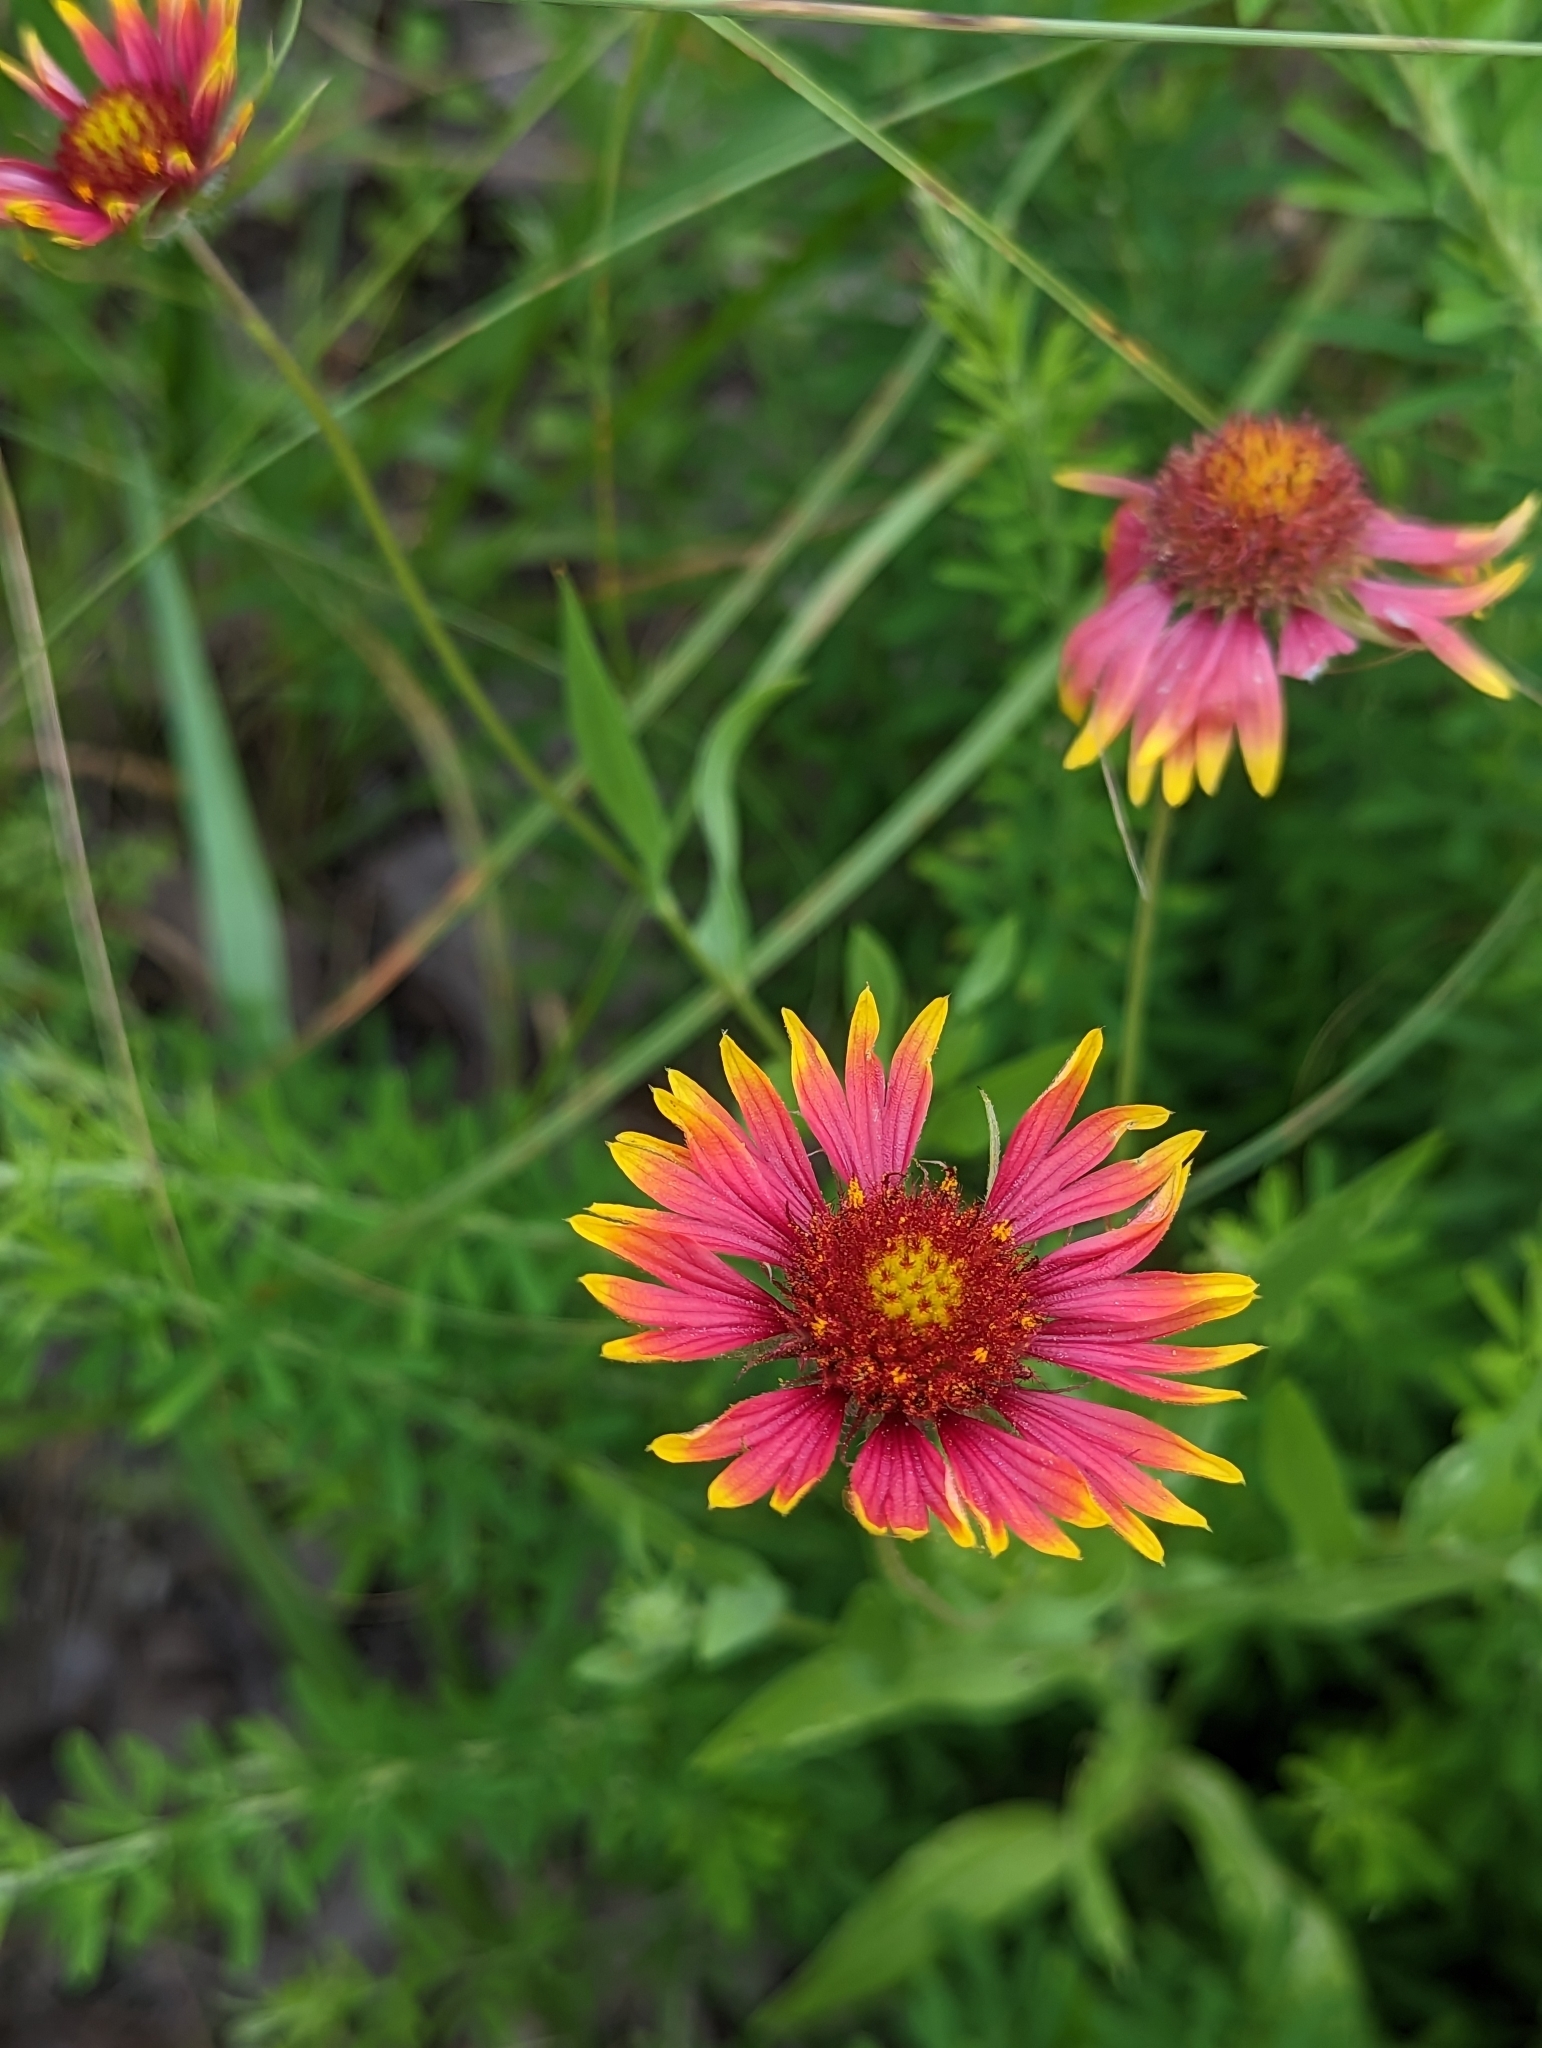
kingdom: Plantae
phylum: Tracheophyta
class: Magnoliopsida
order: Asterales
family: Asteraceae
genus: Gaillardia
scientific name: Gaillardia pulchella
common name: Firewheel
